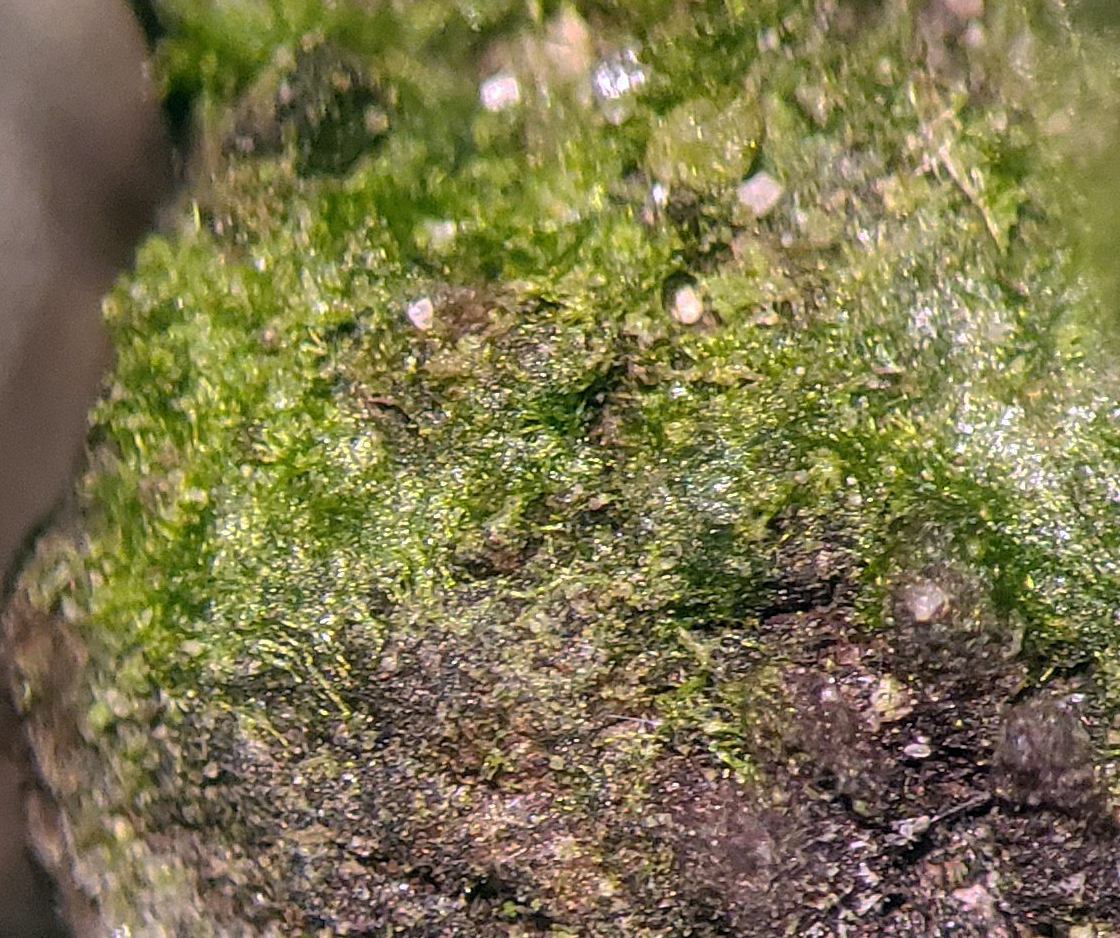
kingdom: Plantae
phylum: Charophyta
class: Klebsormidiophyceae
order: Klebsormidiales
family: Klebsormidiaceae
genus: Klebsormidium
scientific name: Klebsormidium
